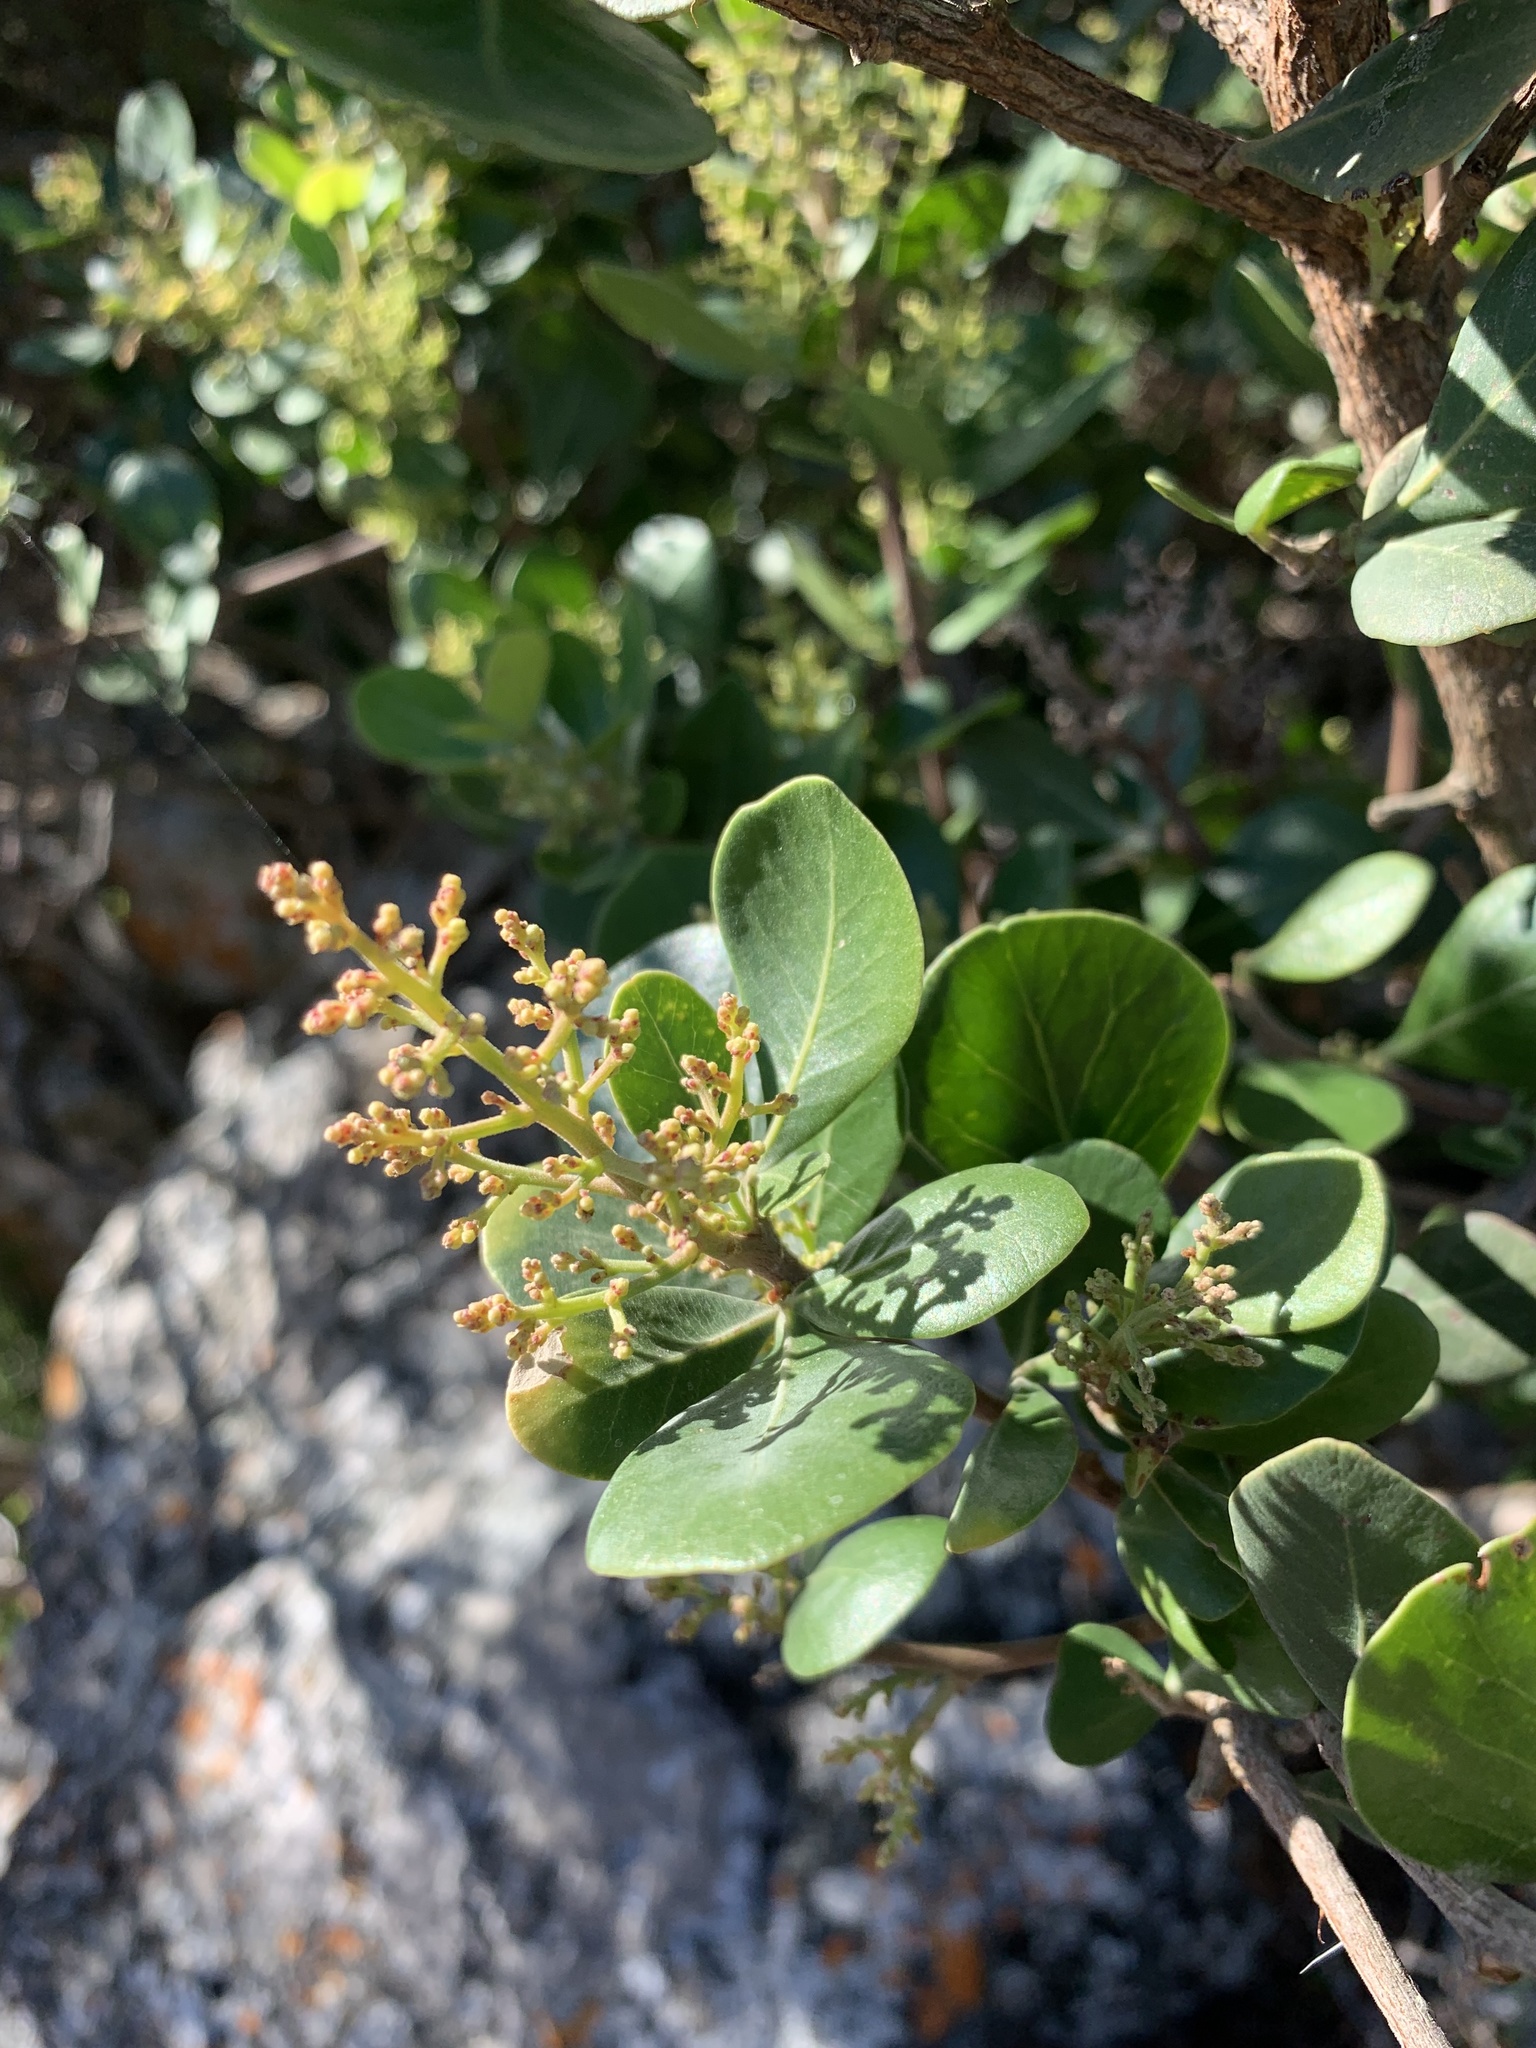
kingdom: Plantae
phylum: Tracheophyta
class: Magnoliopsida
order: Sapindales
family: Anacardiaceae
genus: Searsia
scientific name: Searsia lucida
